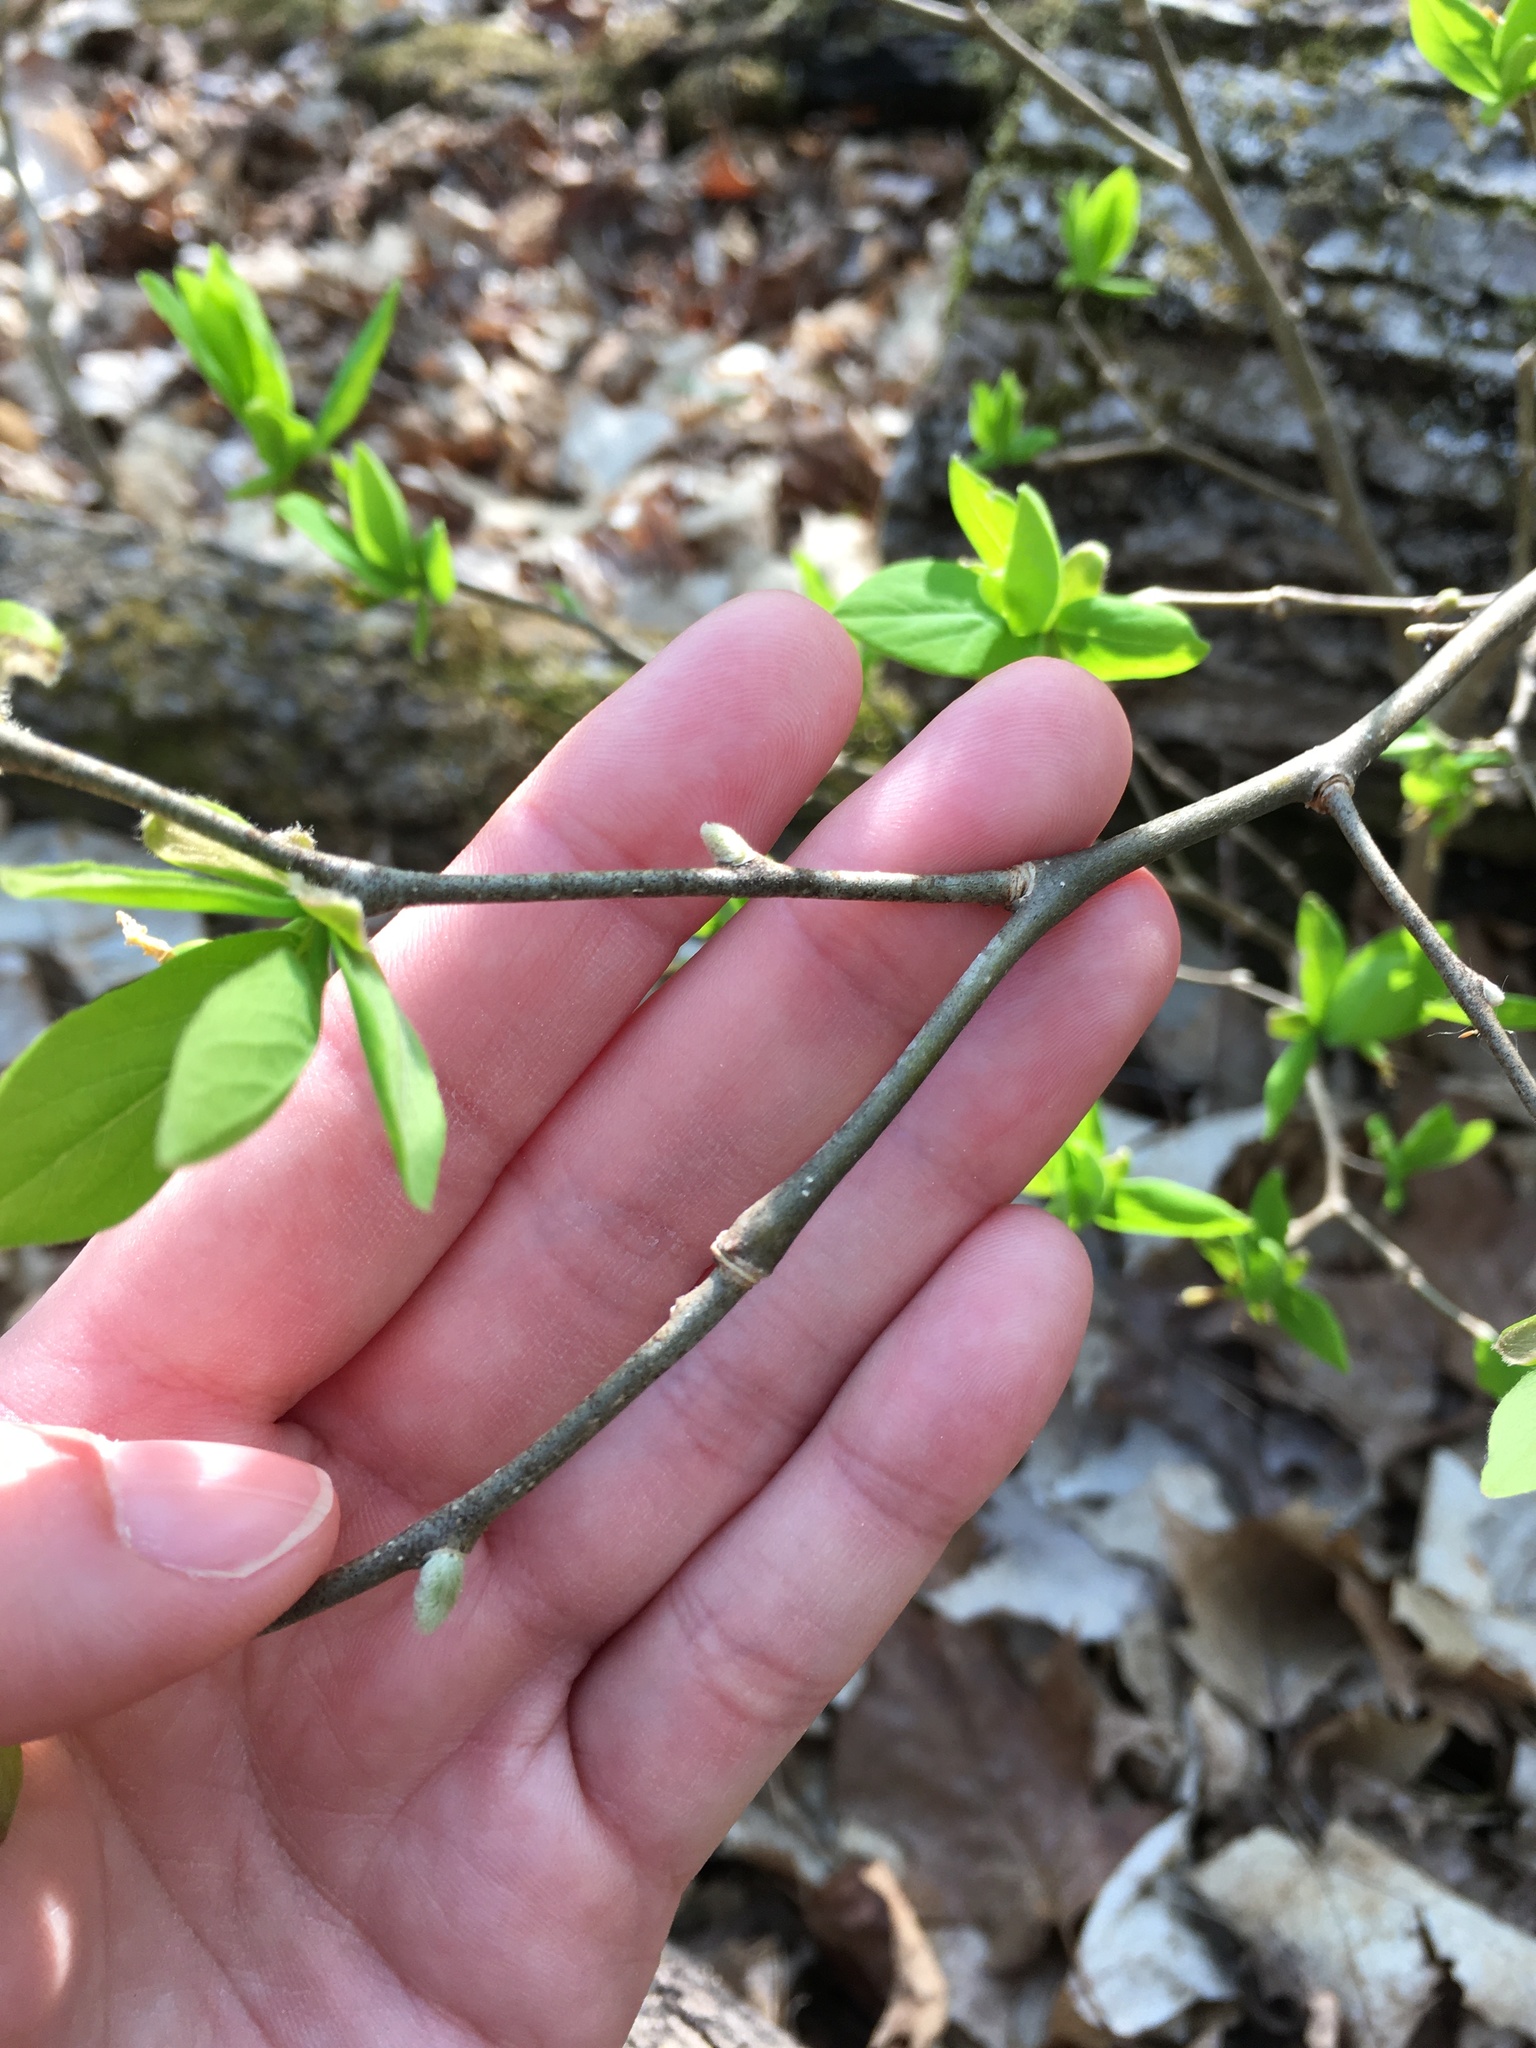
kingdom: Plantae
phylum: Tracheophyta
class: Magnoliopsida
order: Malvales
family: Thymelaeaceae
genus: Dirca
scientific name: Dirca palustris
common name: Leatherwood
